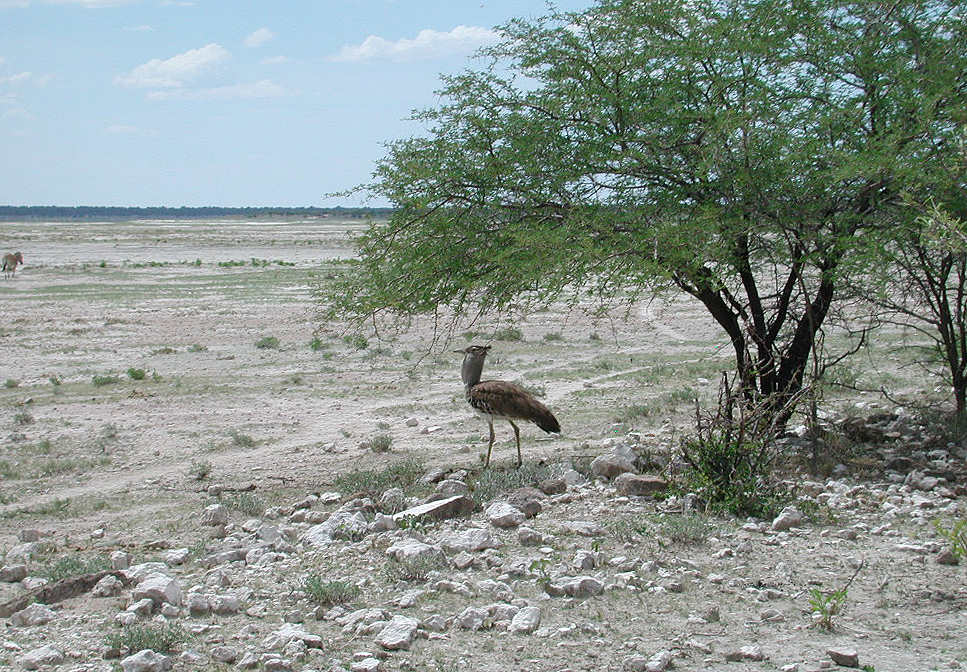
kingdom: Animalia
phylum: Chordata
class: Aves
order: Otidiformes
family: Otididae
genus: Ardeotis
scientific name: Ardeotis kori
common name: Kori bustard
